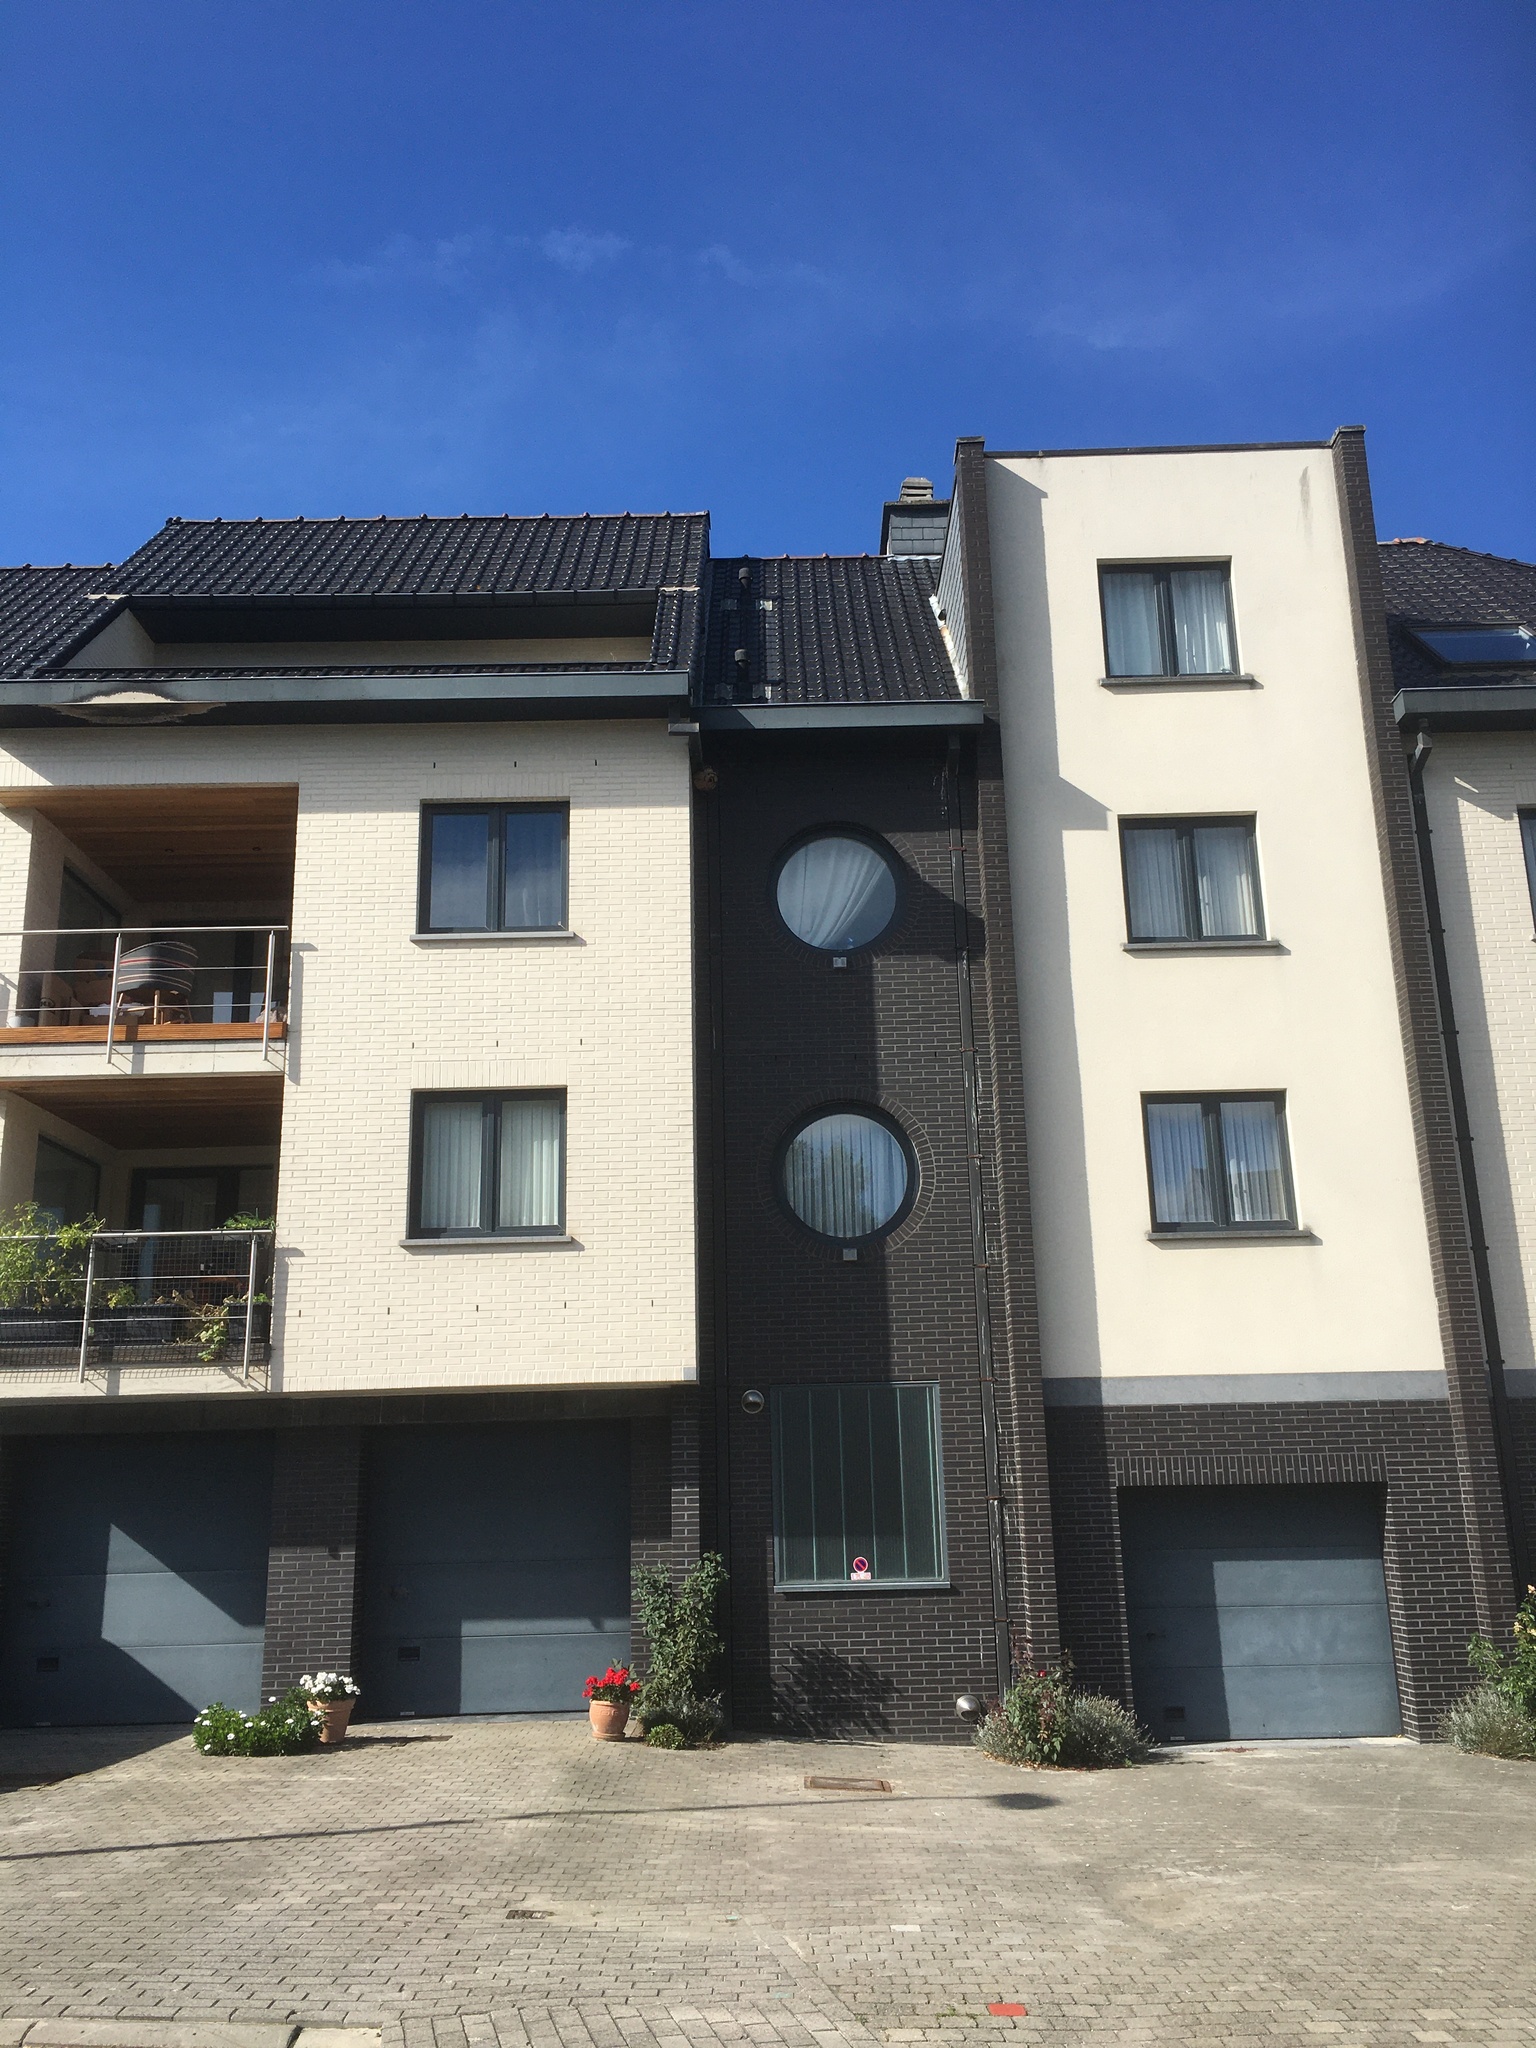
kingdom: Animalia
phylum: Arthropoda
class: Insecta
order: Hymenoptera
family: Vespidae
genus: Vespa
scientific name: Vespa velutina
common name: Asian hornet
